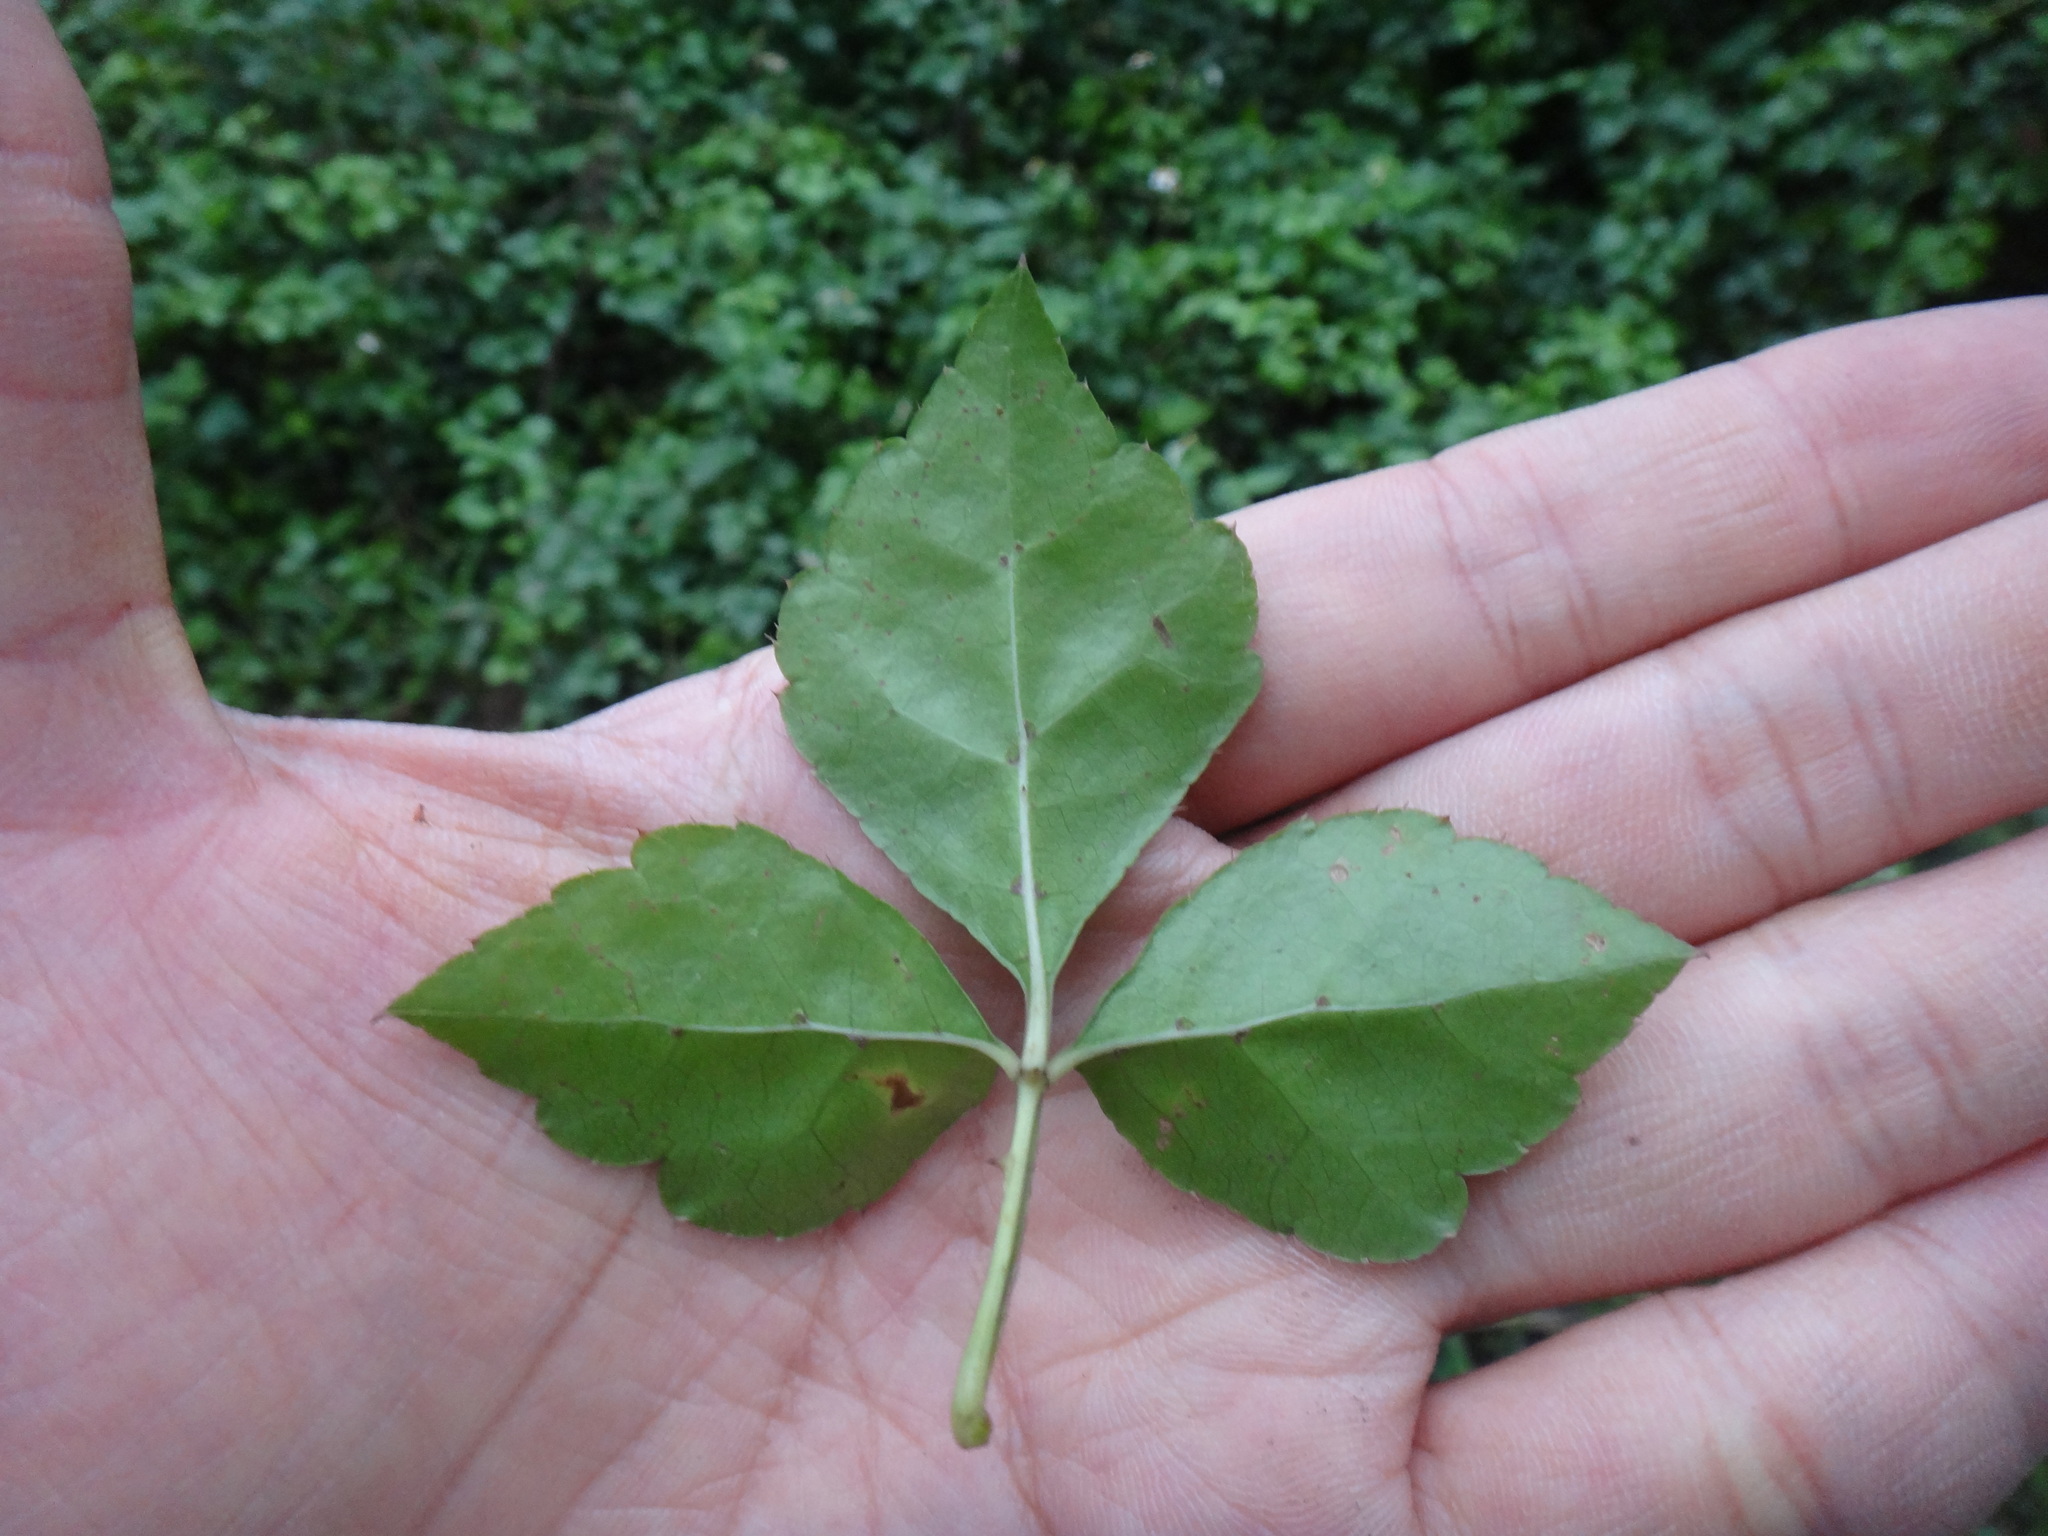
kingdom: Plantae
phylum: Tracheophyta
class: Magnoliopsida
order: Apiales
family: Araliaceae
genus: Eleutherococcus
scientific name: Eleutherococcus trifoliatus
